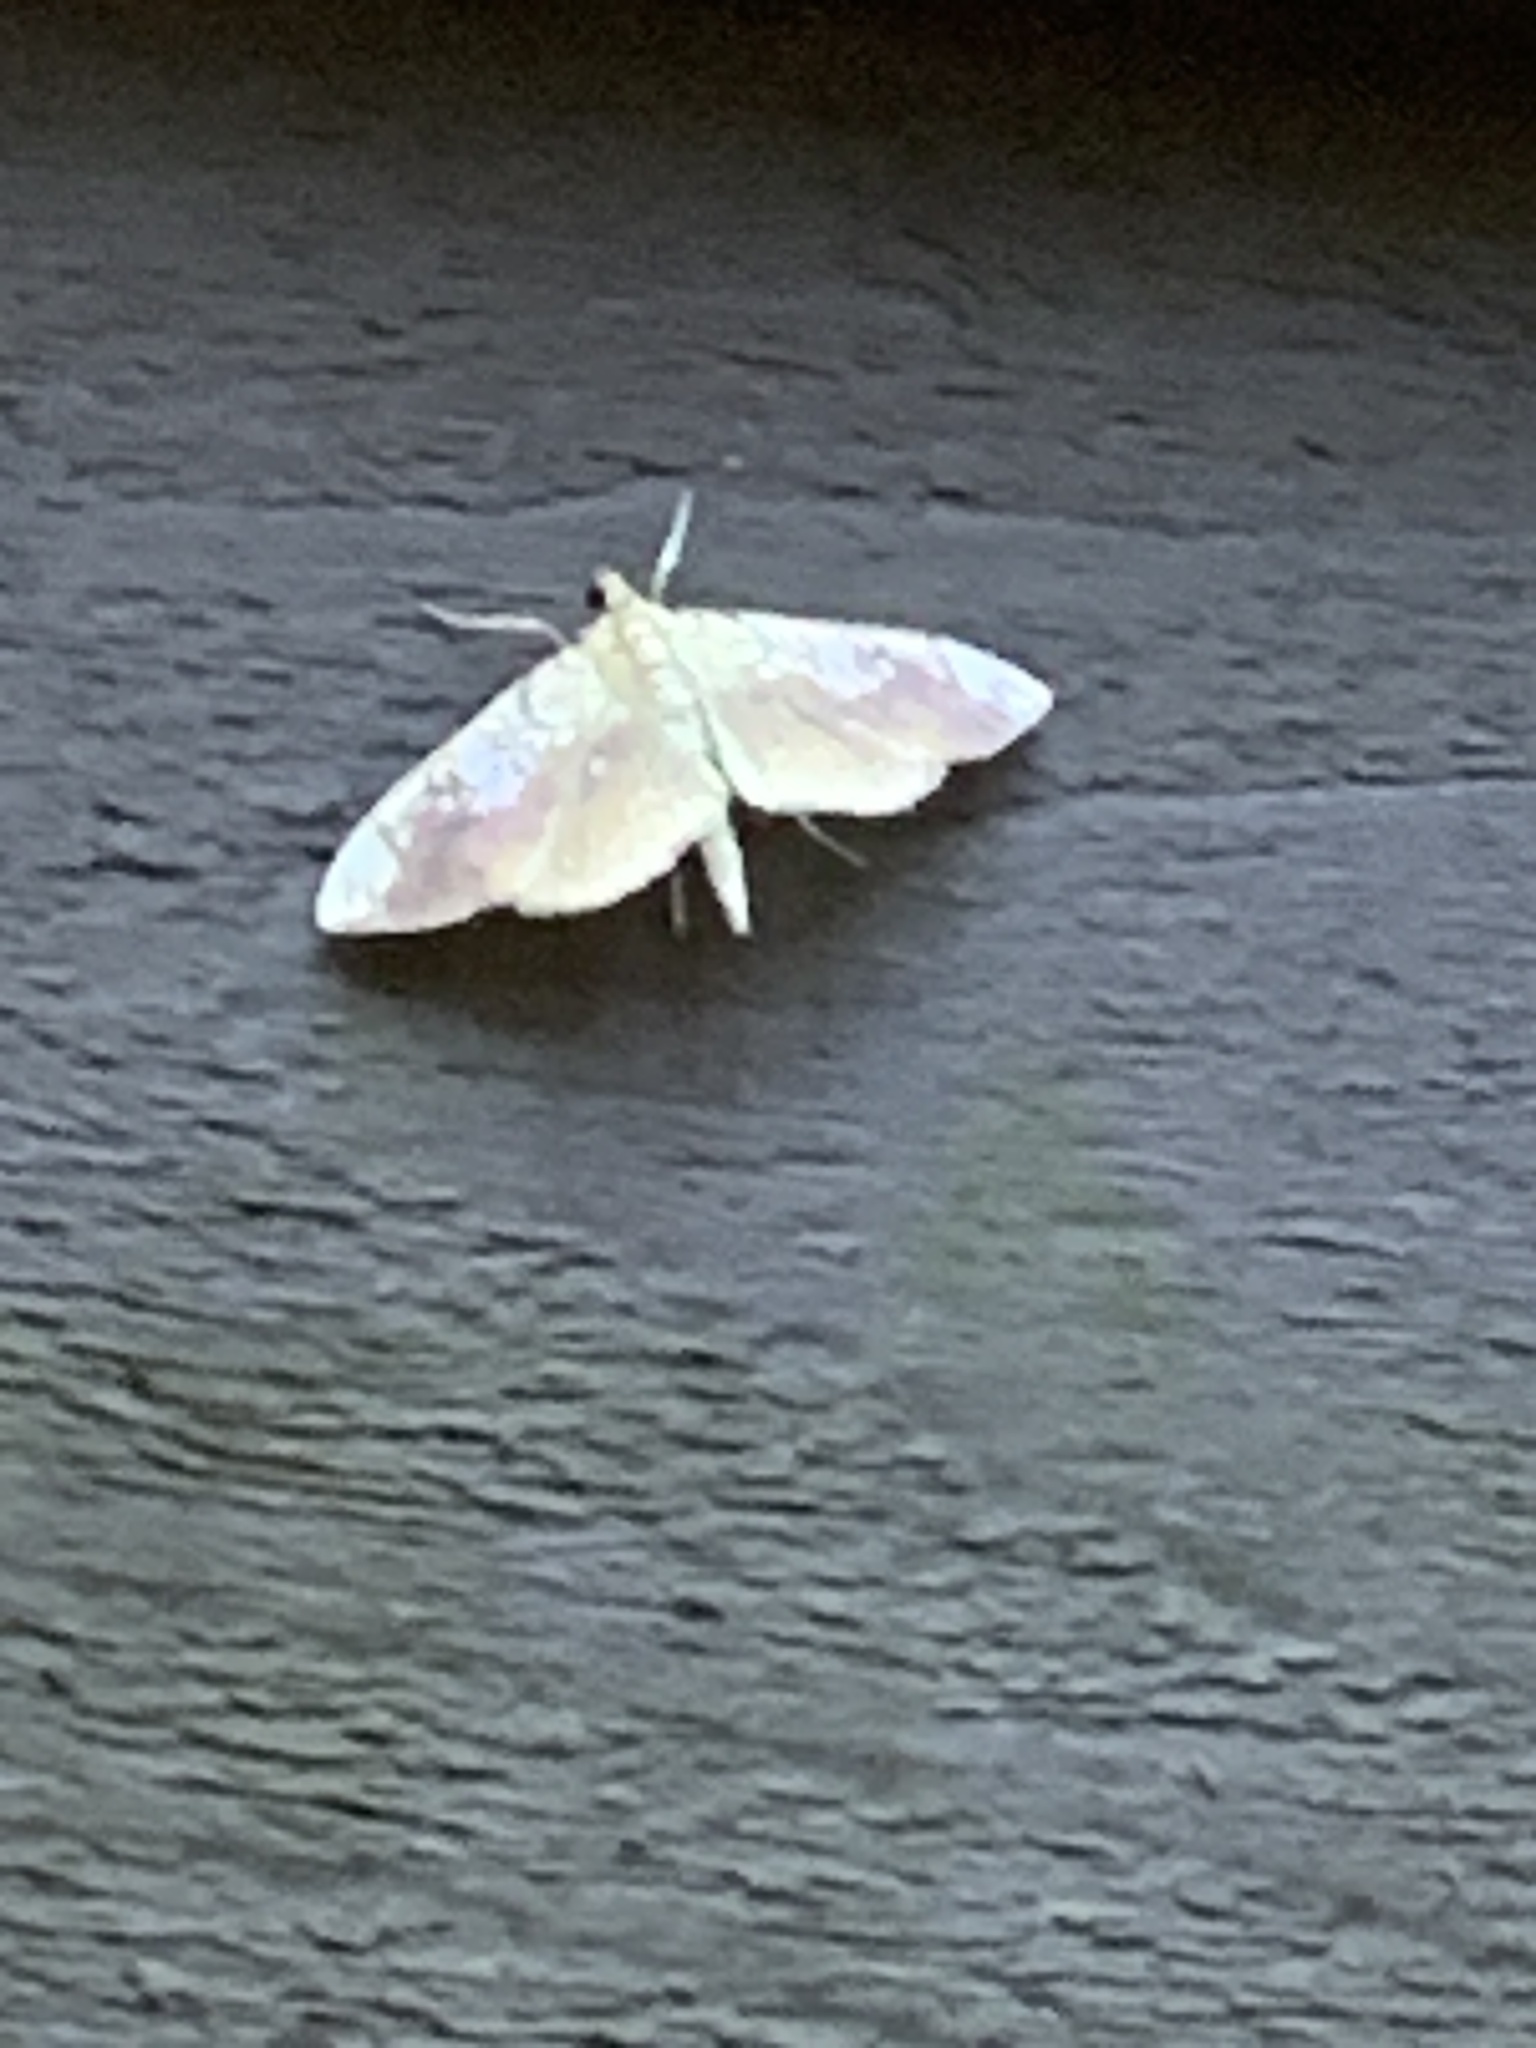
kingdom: Animalia
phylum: Arthropoda
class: Insecta
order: Lepidoptera
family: Crambidae
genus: Pantographa
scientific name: Pantographa limata
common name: Basswood leafroller moth
